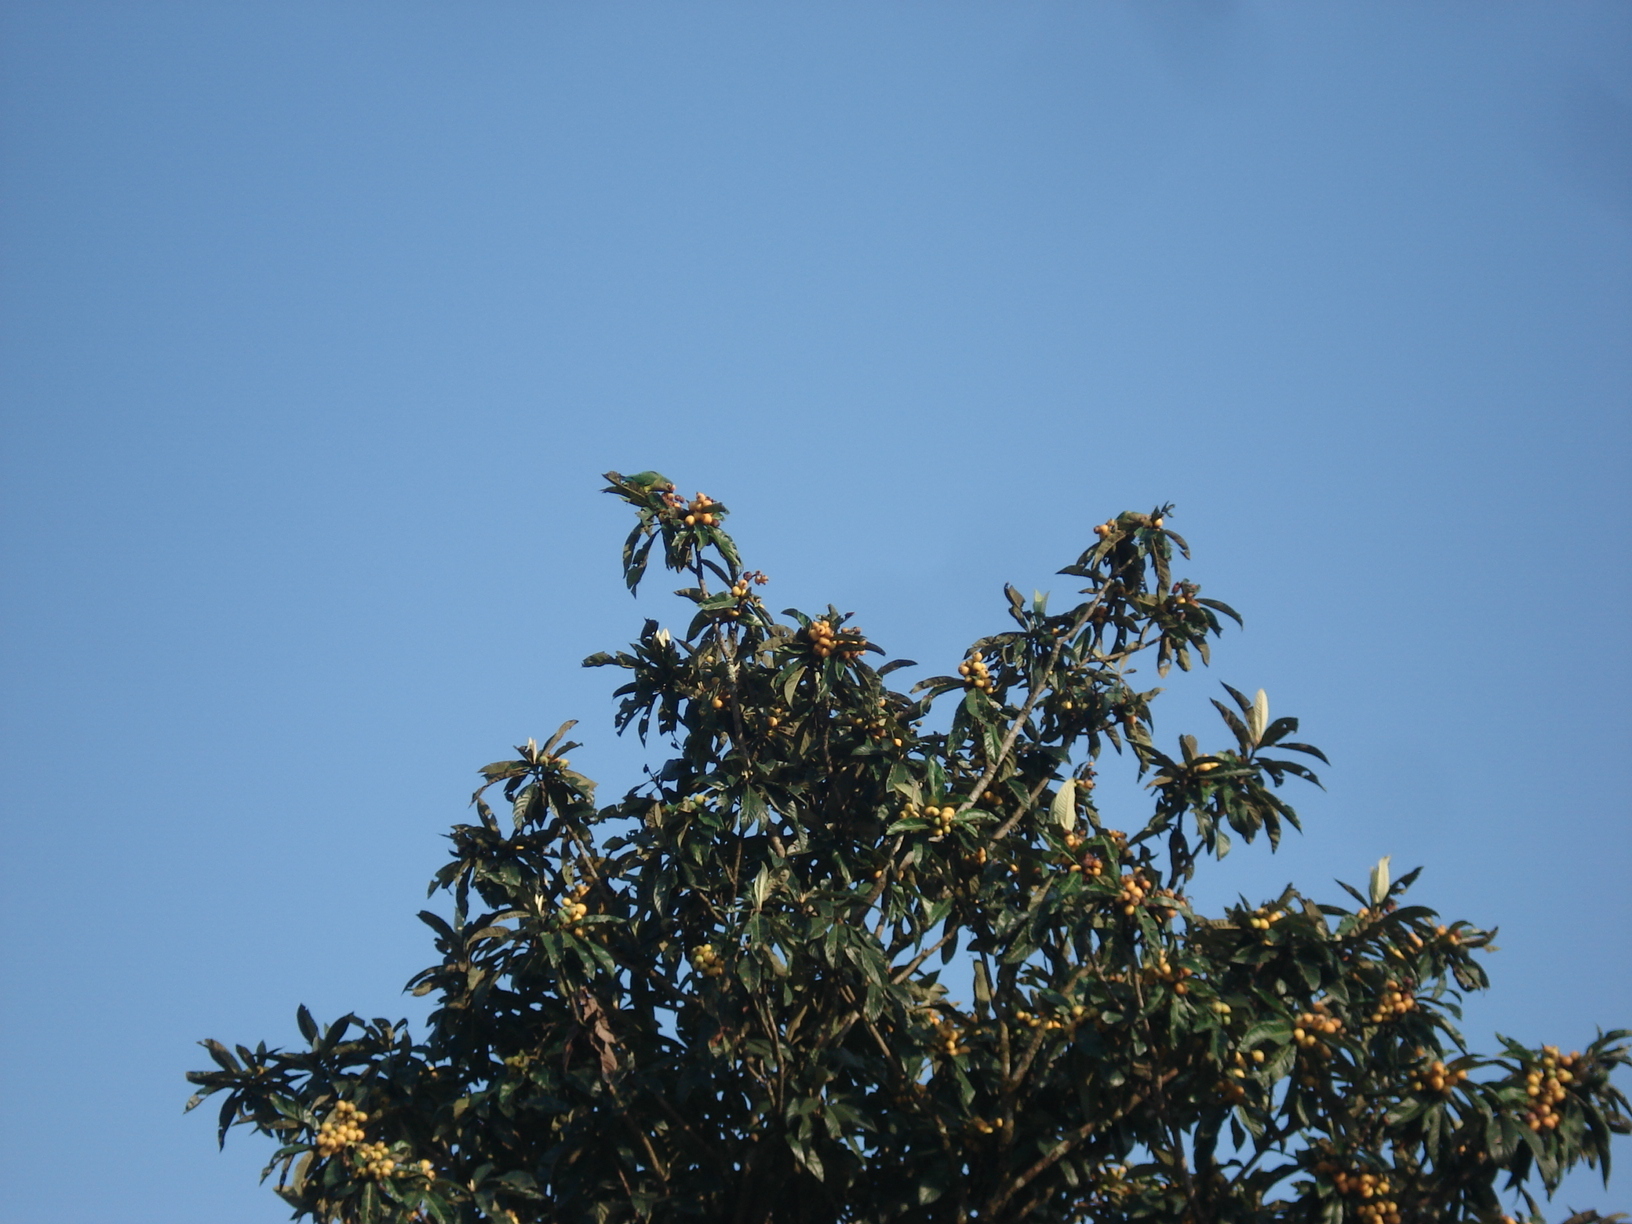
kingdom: Animalia
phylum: Chordata
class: Aves
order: Psittaciformes
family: Psittacidae
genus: Aratinga
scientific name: Aratinga aurea
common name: Peach-fronted parakeet
